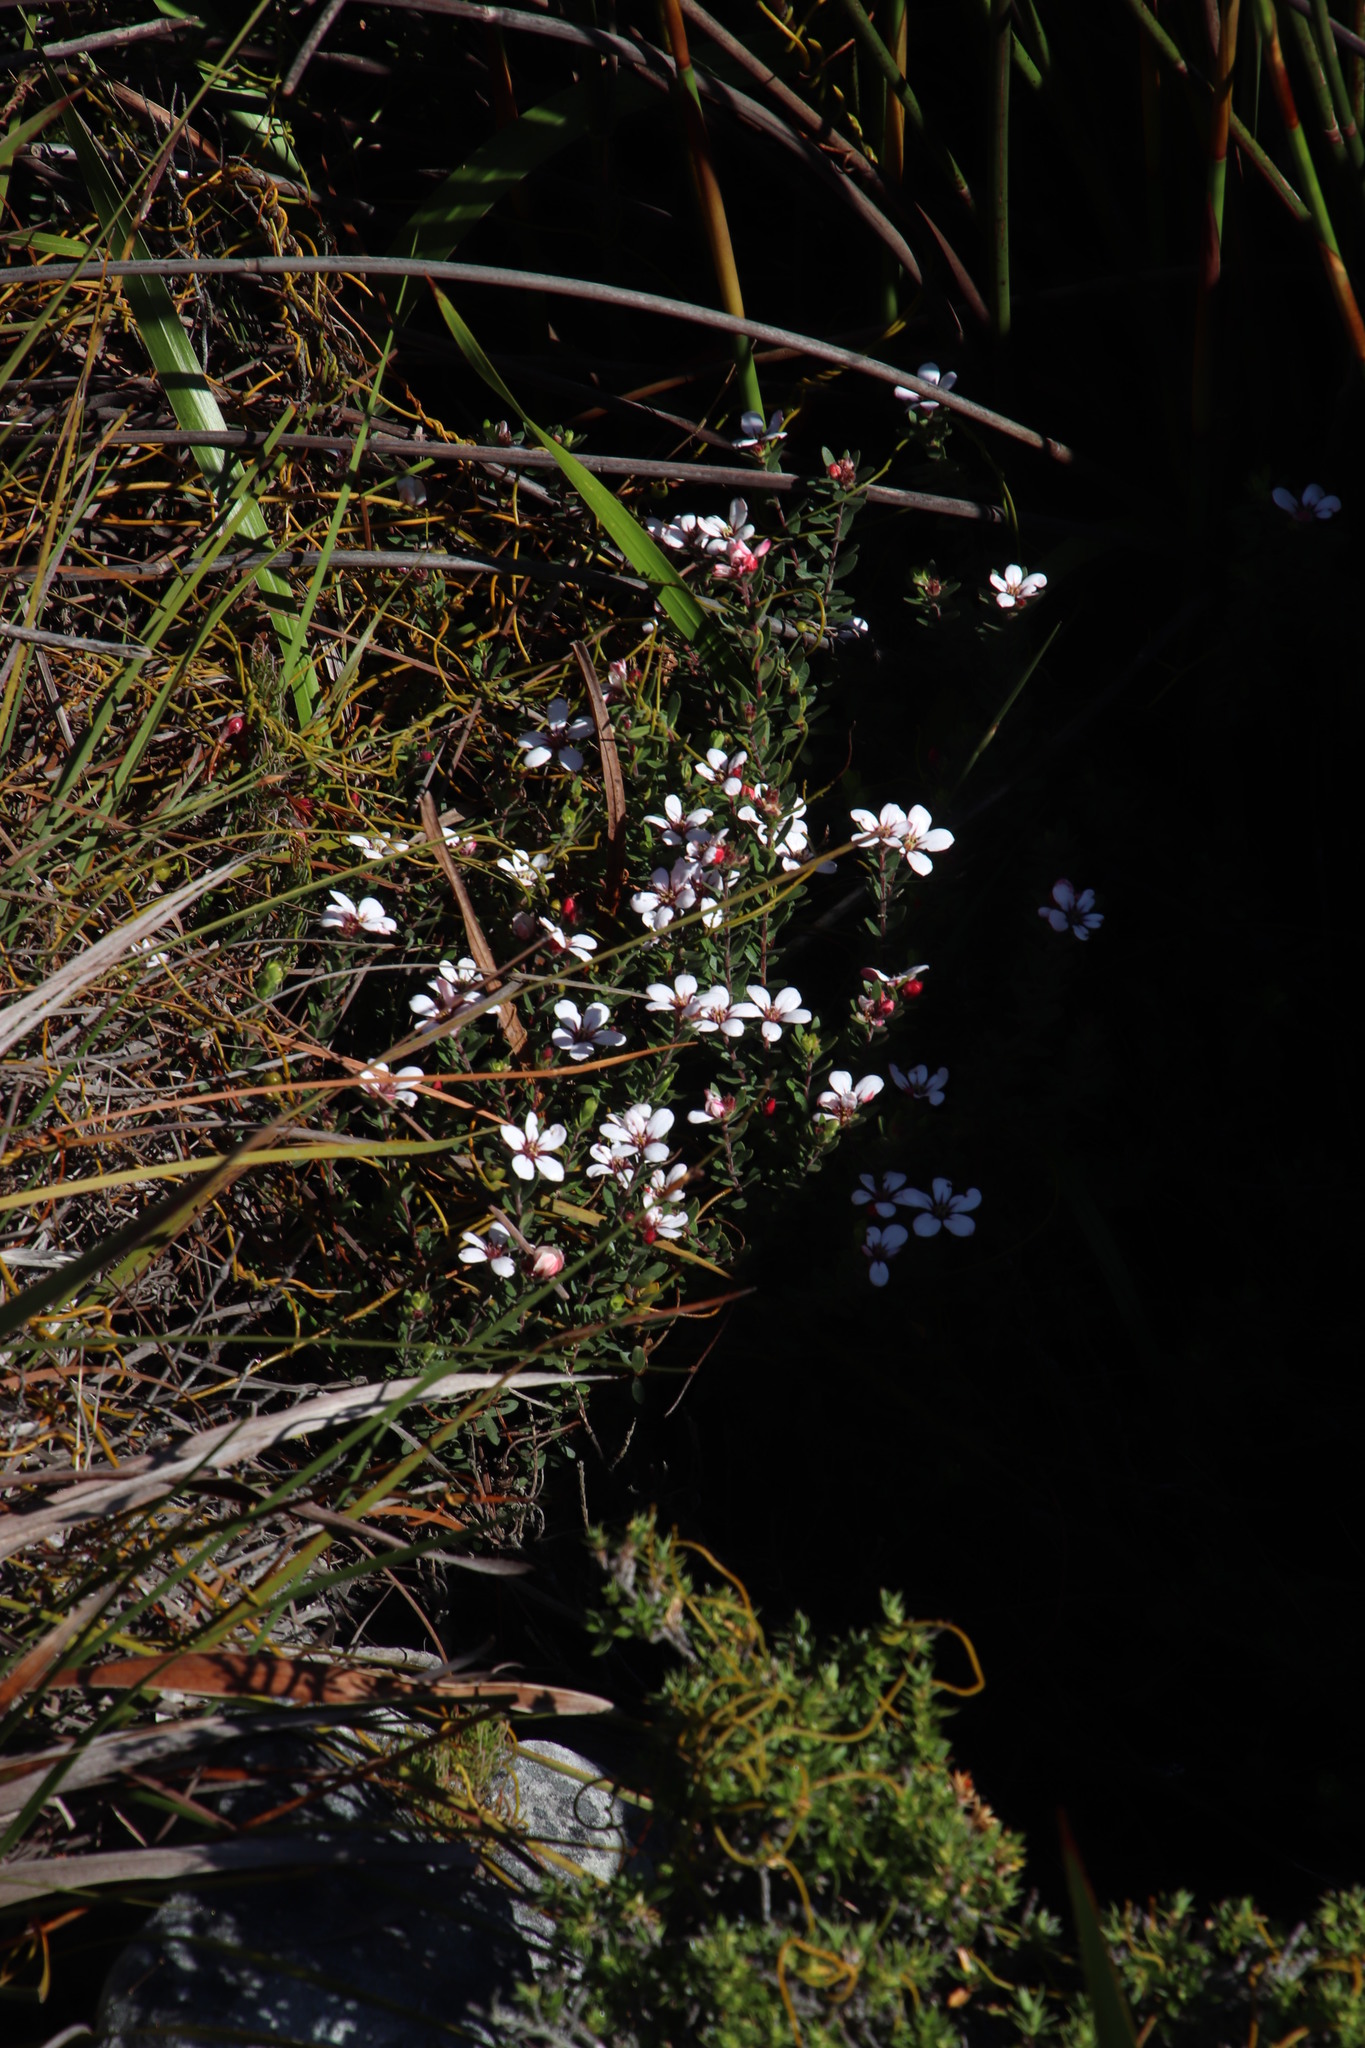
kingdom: Plantae
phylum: Tracheophyta
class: Magnoliopsida
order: Sapindales
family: Rutaceae
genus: Adenandra
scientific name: Adenandra villosa
